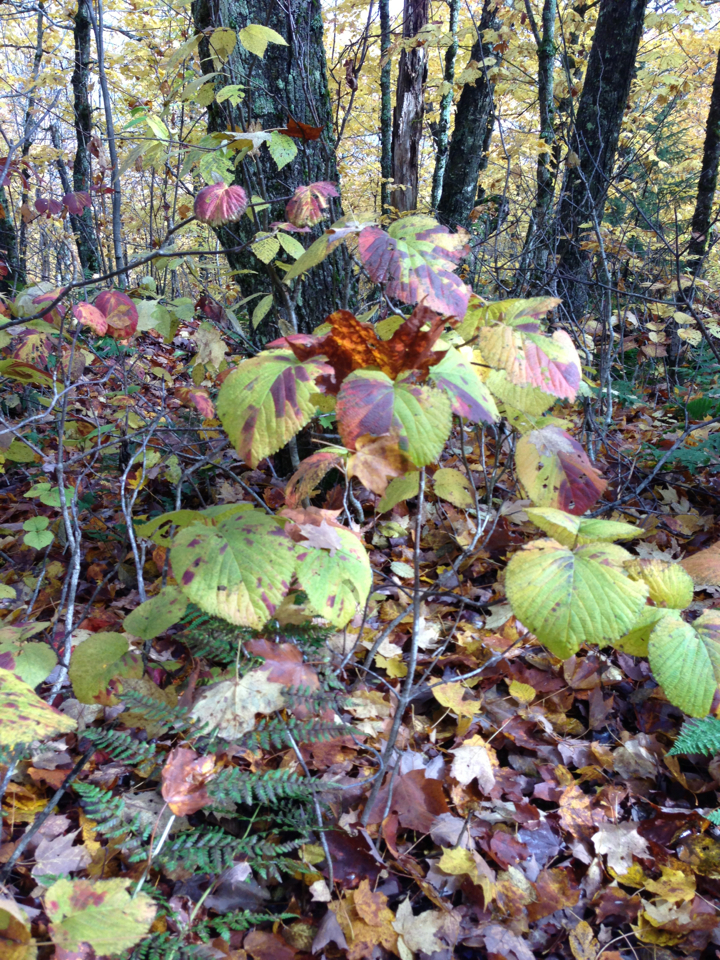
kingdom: Plantae
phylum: Tracheophyta
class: Magnoliopsida
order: Dipsacales
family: Viburnaceae
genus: Viburnum
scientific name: Viburnum lantanoides
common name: Hobblebush
